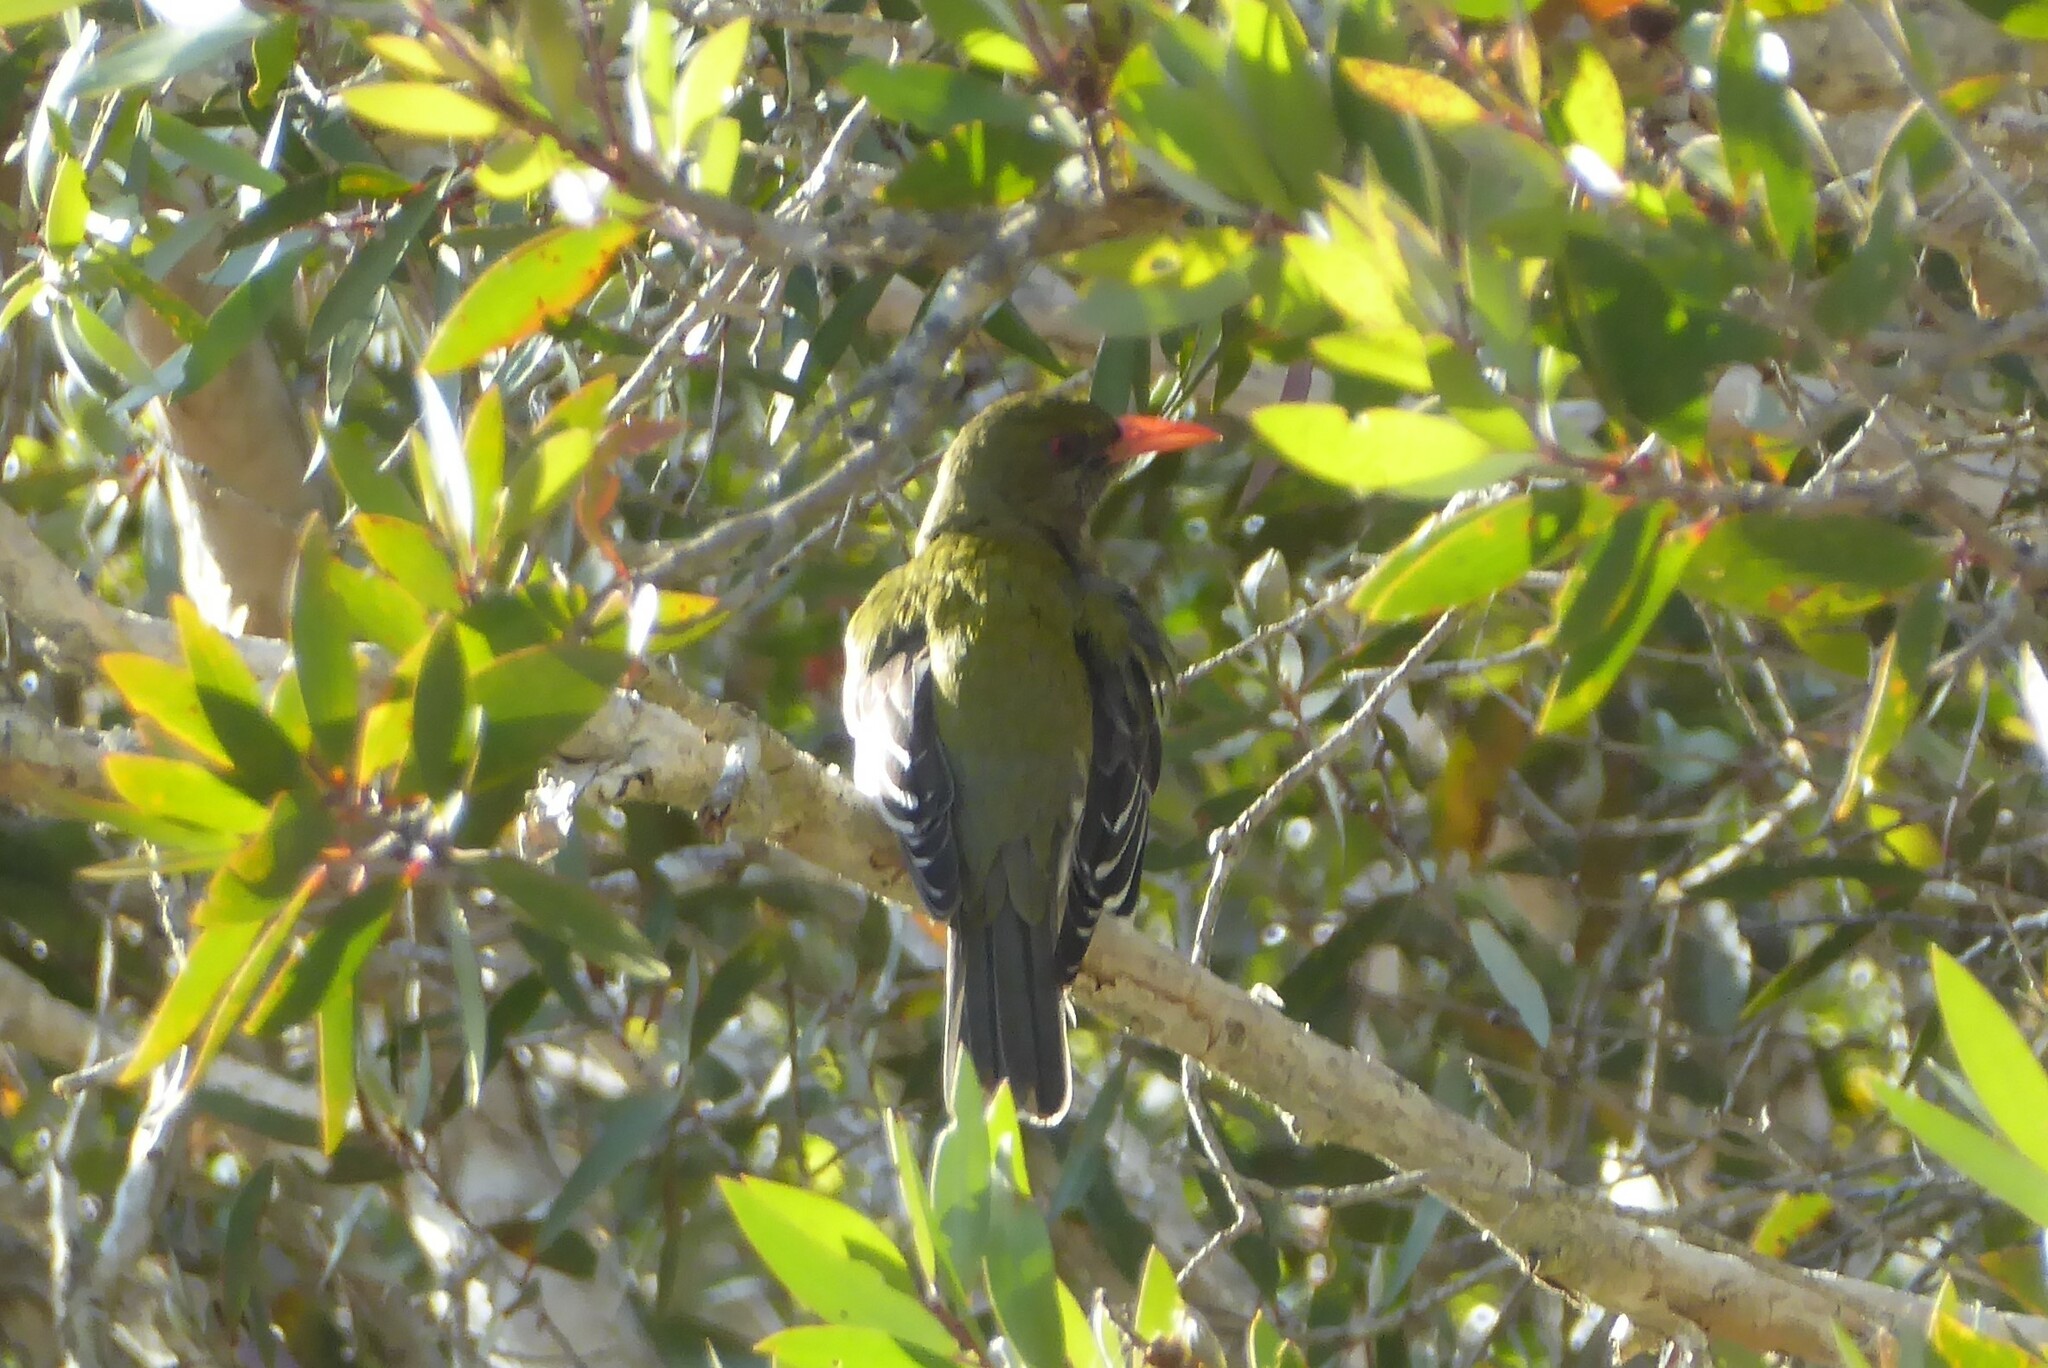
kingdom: Animalia
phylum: Chordata
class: Aves
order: Passeriformes
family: Oriolidae
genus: Oriolus
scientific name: Oriolus sagittatus
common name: Olive-backed oriole
